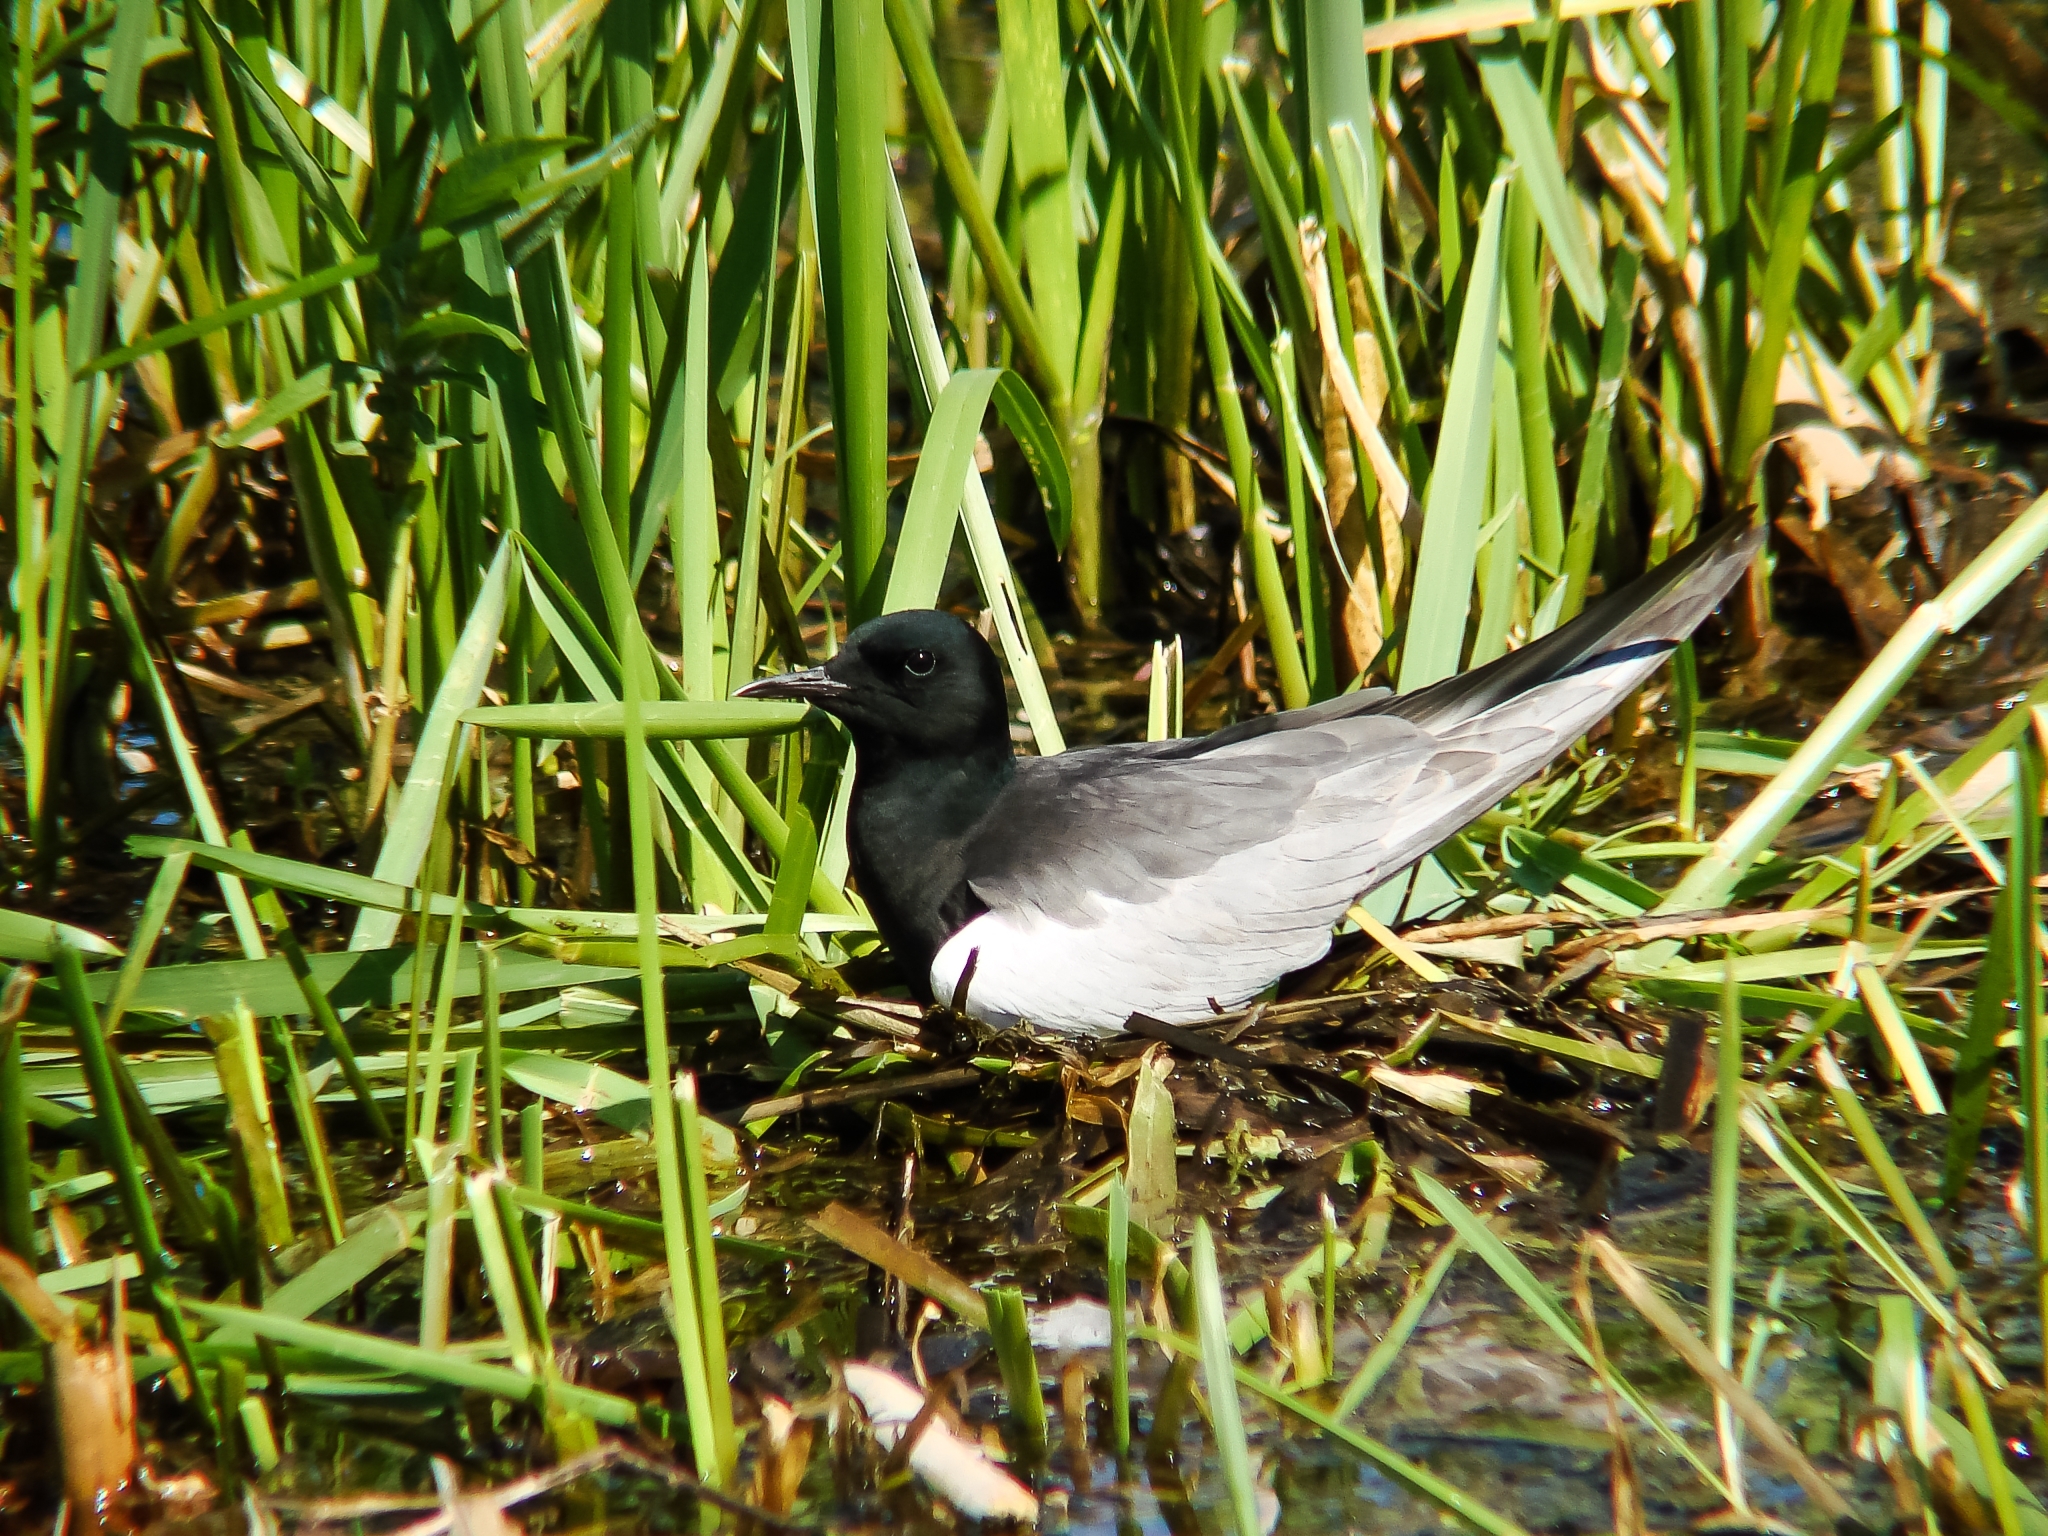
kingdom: Animalia
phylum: Chordata
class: Aves
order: Charadriiformes
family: Laridae
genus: Chlidonias
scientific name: Chlidonias leucopterus
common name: White-winged tern
